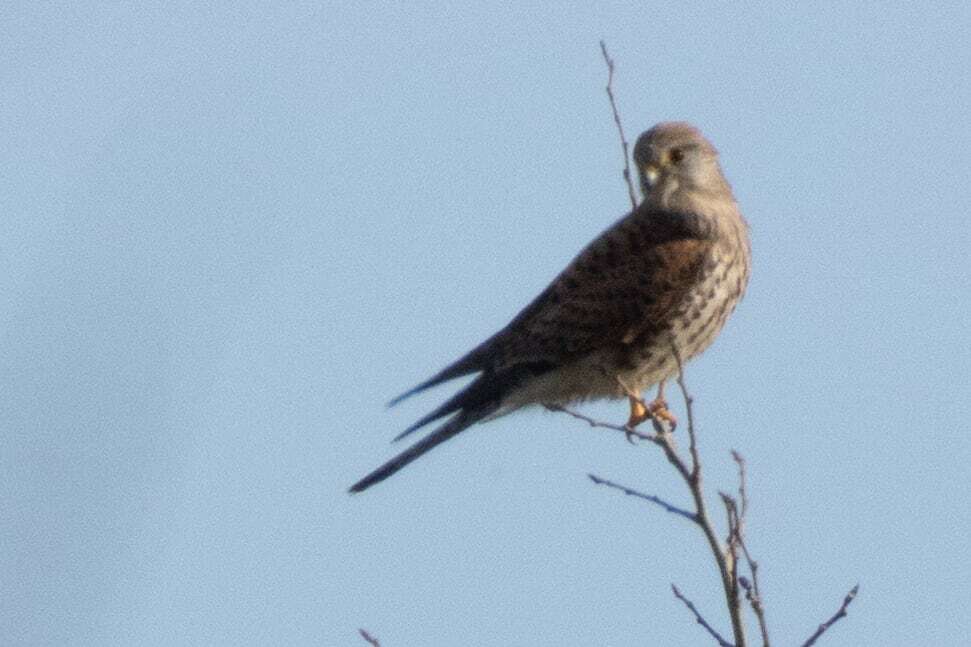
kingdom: Animalia
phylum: Chordata
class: Aves
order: Falconiformes
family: Falconidae
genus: Falco
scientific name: Falco tinnunculus
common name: Common kestrel
